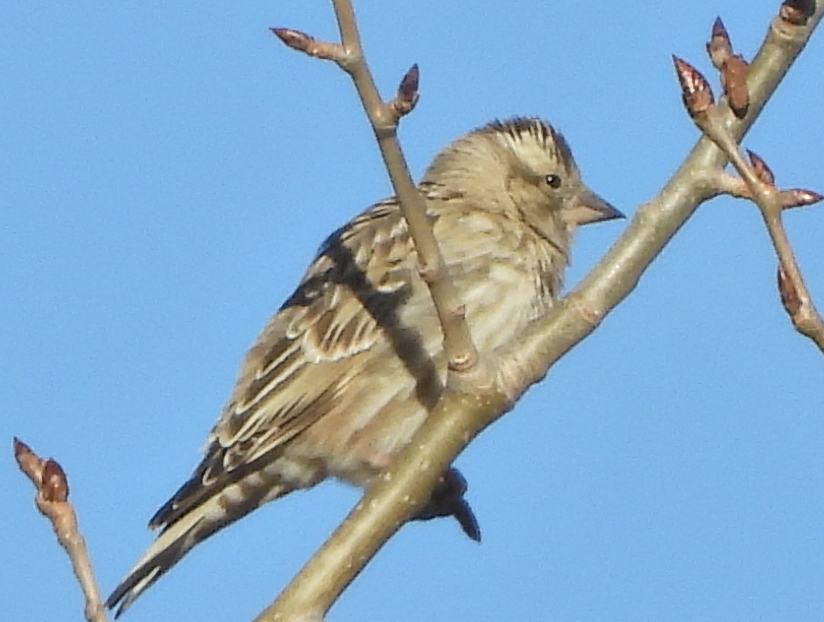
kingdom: Animalia
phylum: Chordata
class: Aves
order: Passeriformes
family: Passeridae
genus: Petronia
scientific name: Petronia petronia
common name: Rock sparrow
